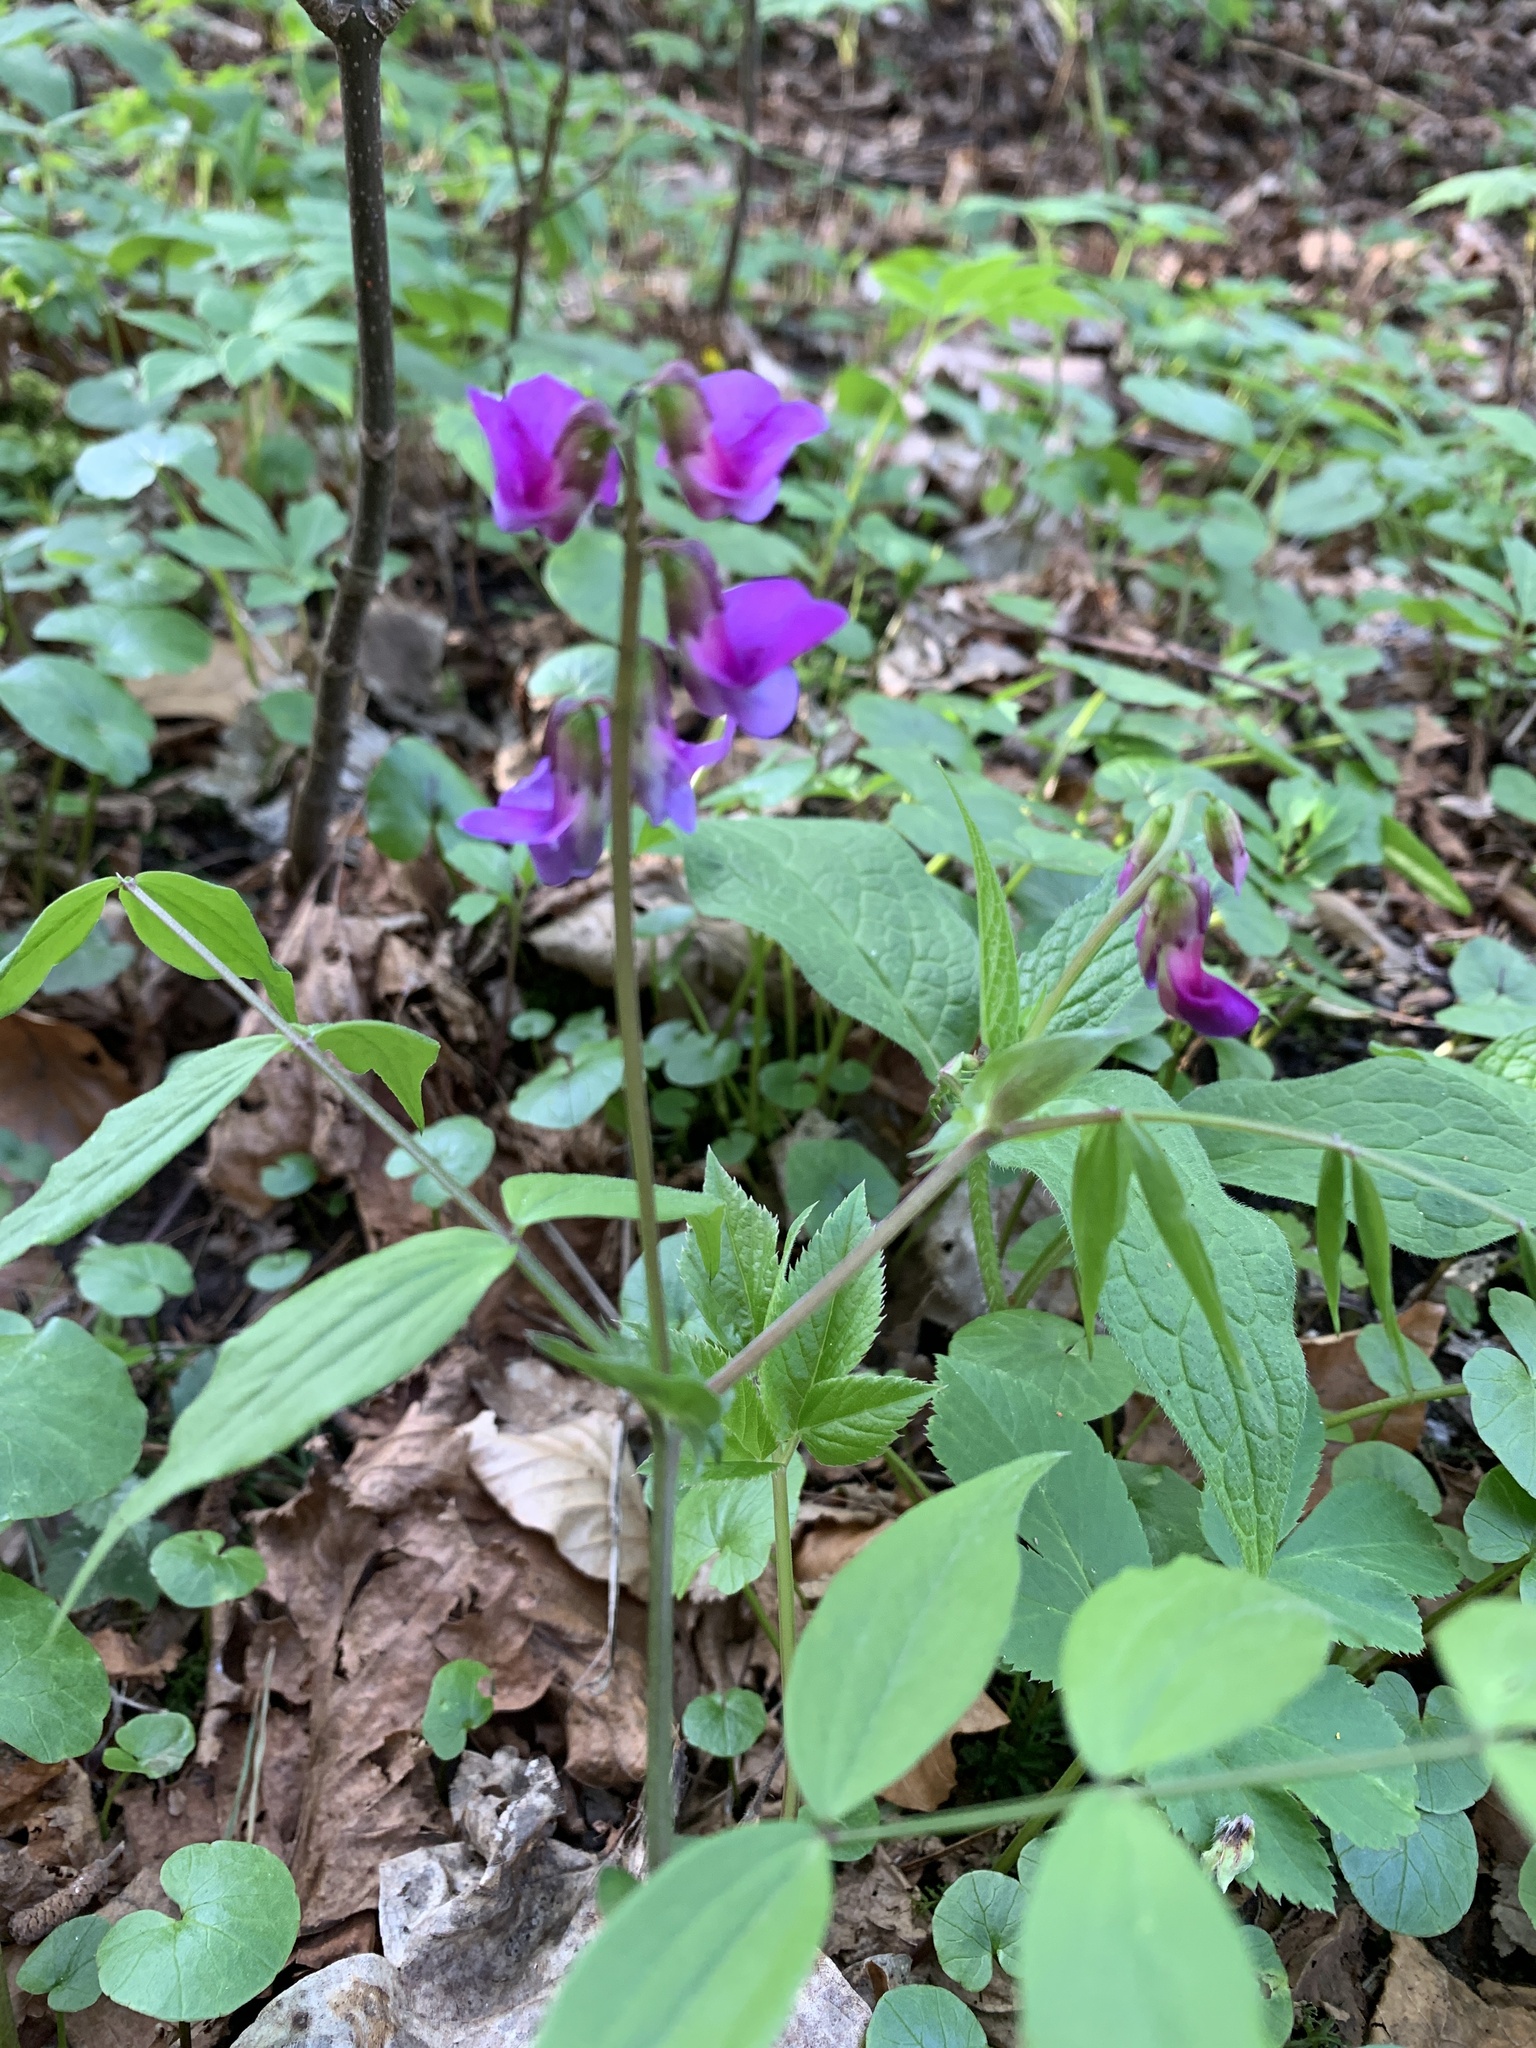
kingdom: Plantae
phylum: Tracheophyta
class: Magnoliopsida
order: Fabales
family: Fabaceae
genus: Lathyrus
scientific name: Lathyrus vernus
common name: Spring pea
